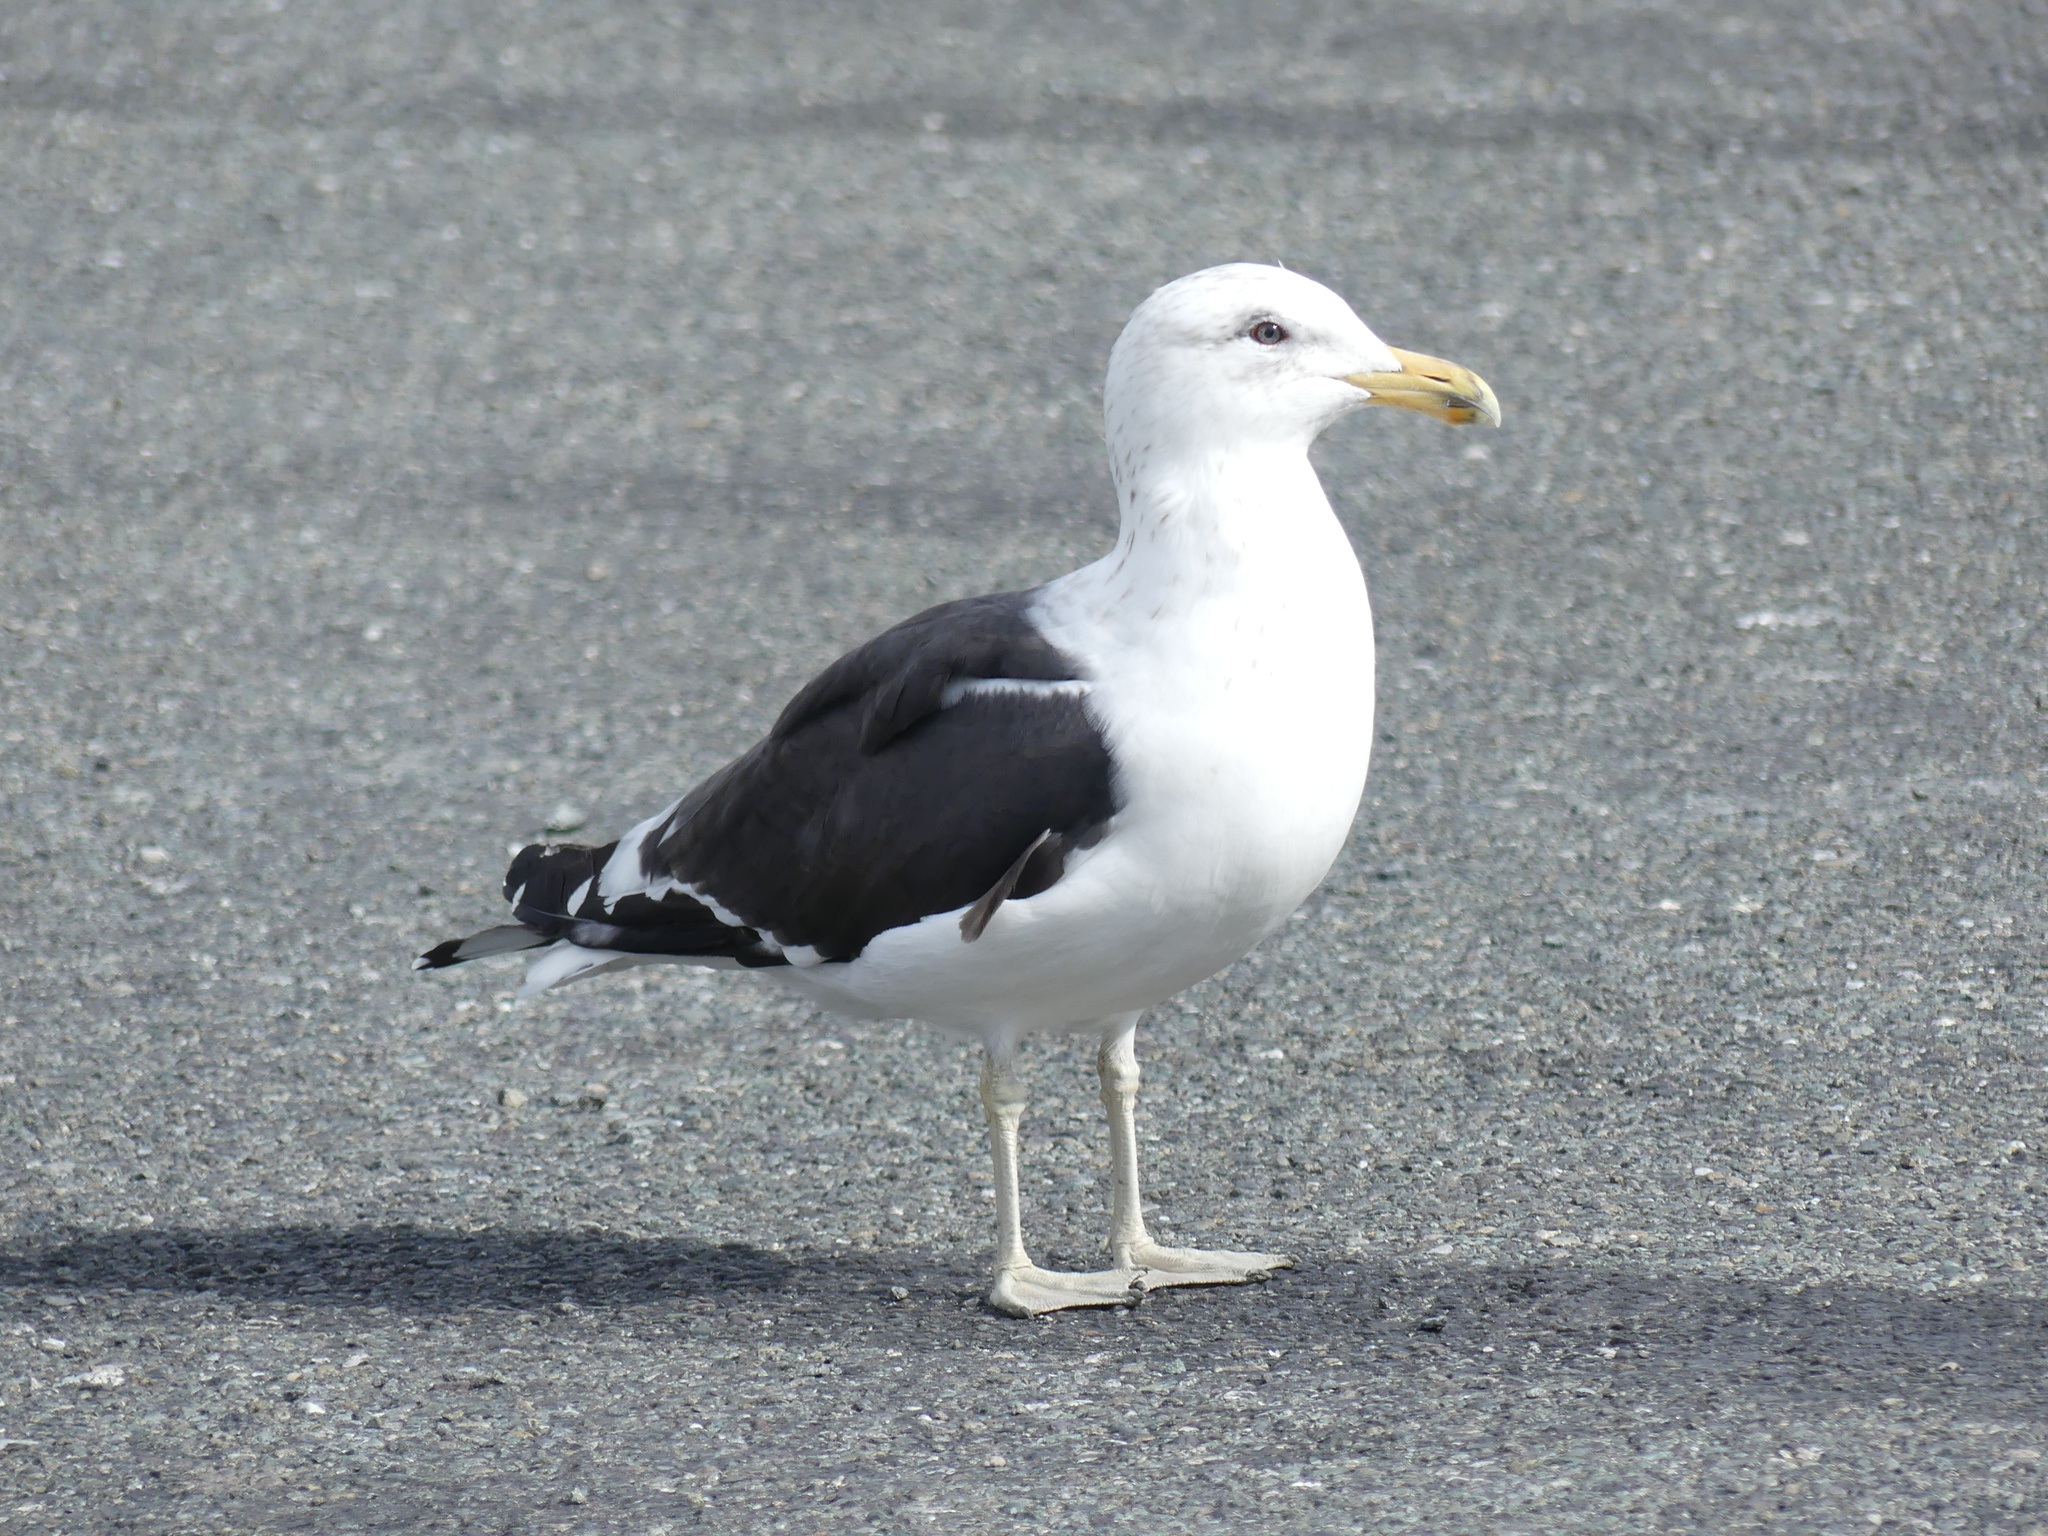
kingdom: Animalia
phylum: Chordata
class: Aves
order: Charadriiformes
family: Laridae
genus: Larus
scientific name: Larus dominicanus
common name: Kelp gull
